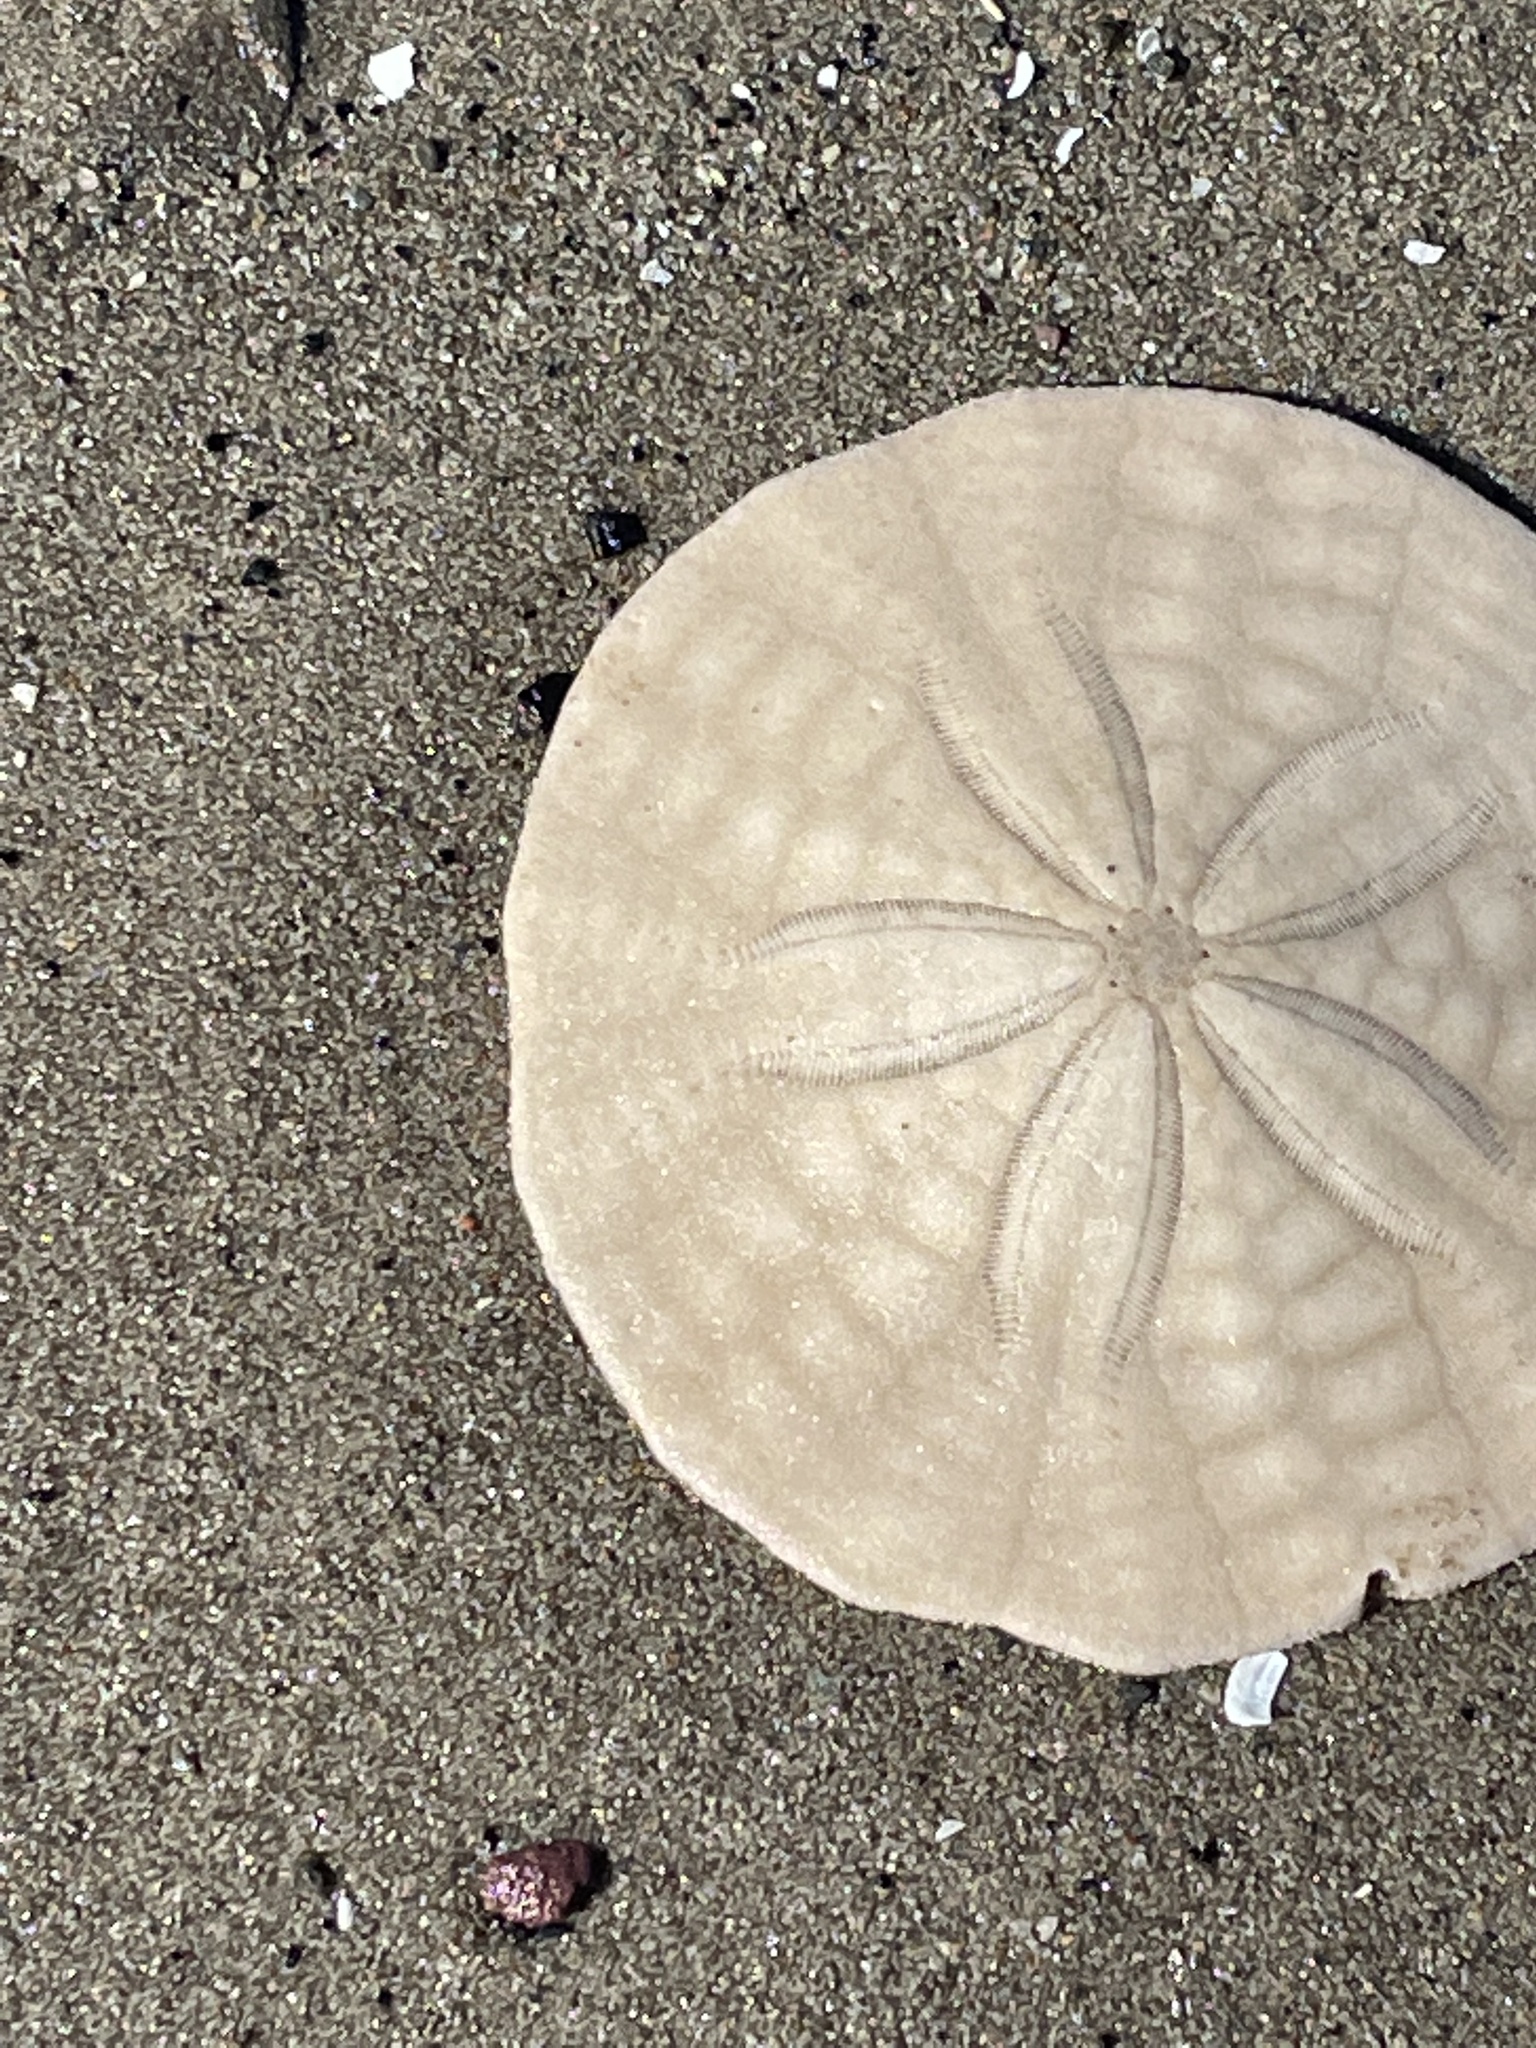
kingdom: Animalia
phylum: Echinodermata
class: Echinoidea
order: Echinolampadacea
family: Echinarachniidae
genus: Echinarachnius
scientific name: Echinarachnius parma
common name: Common sand dollar
